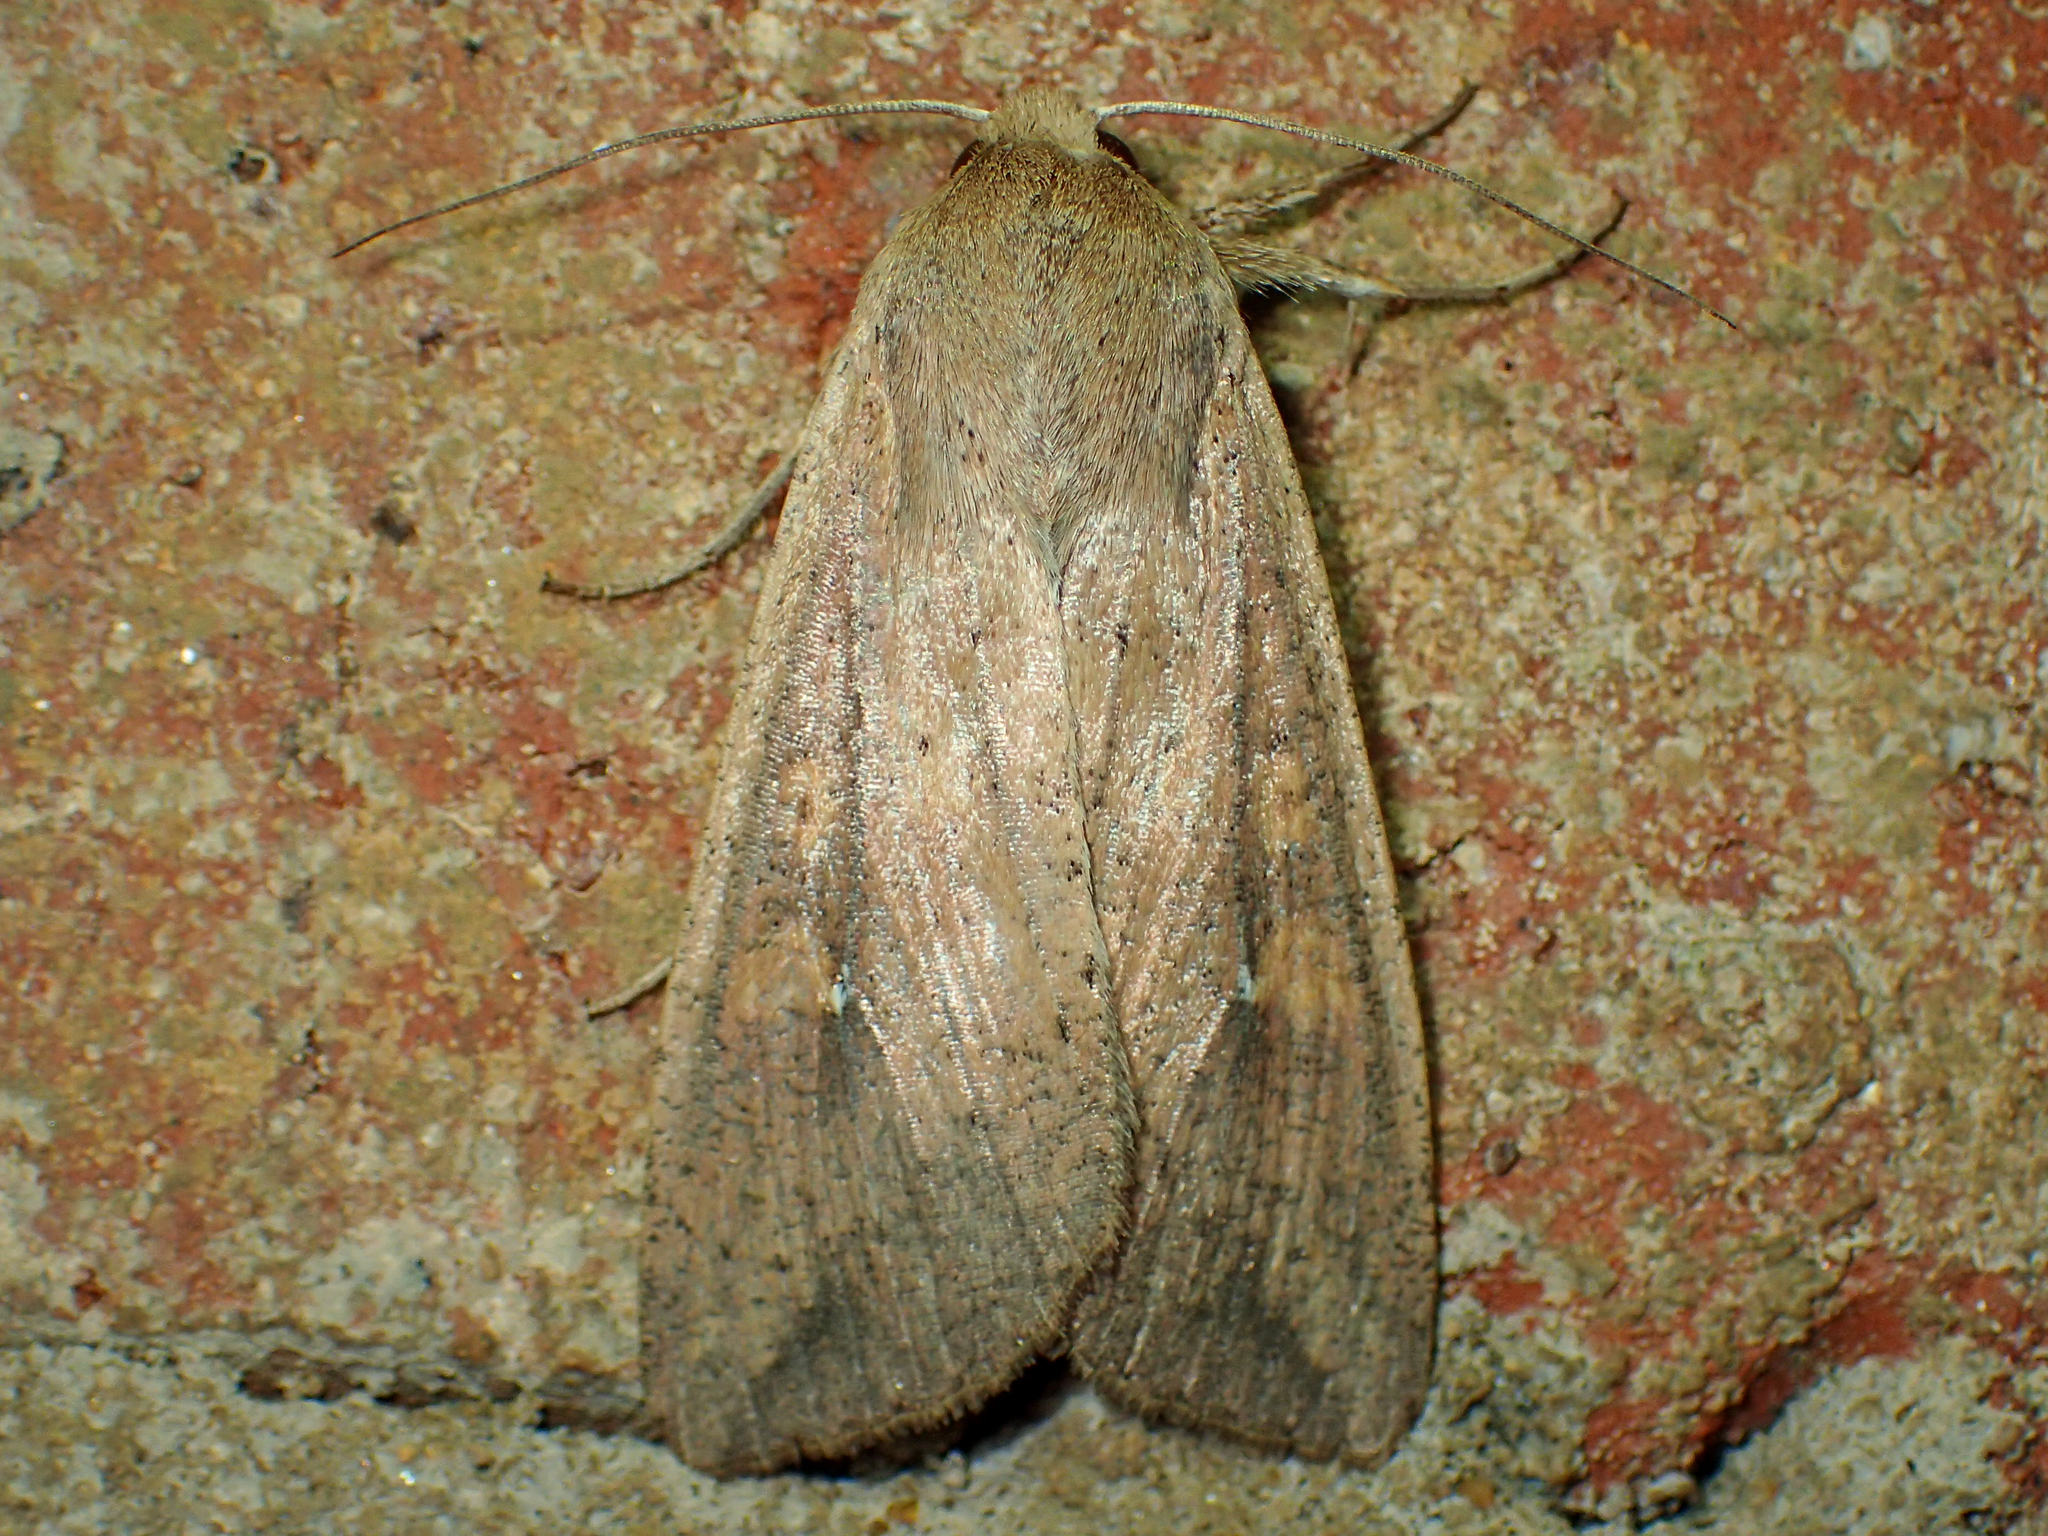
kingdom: Animalia
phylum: Arthropoda
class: Insecta
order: Lepidoptera
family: Noctuidae
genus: Mythimna
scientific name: Mythimna unipuncta
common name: White-speck
